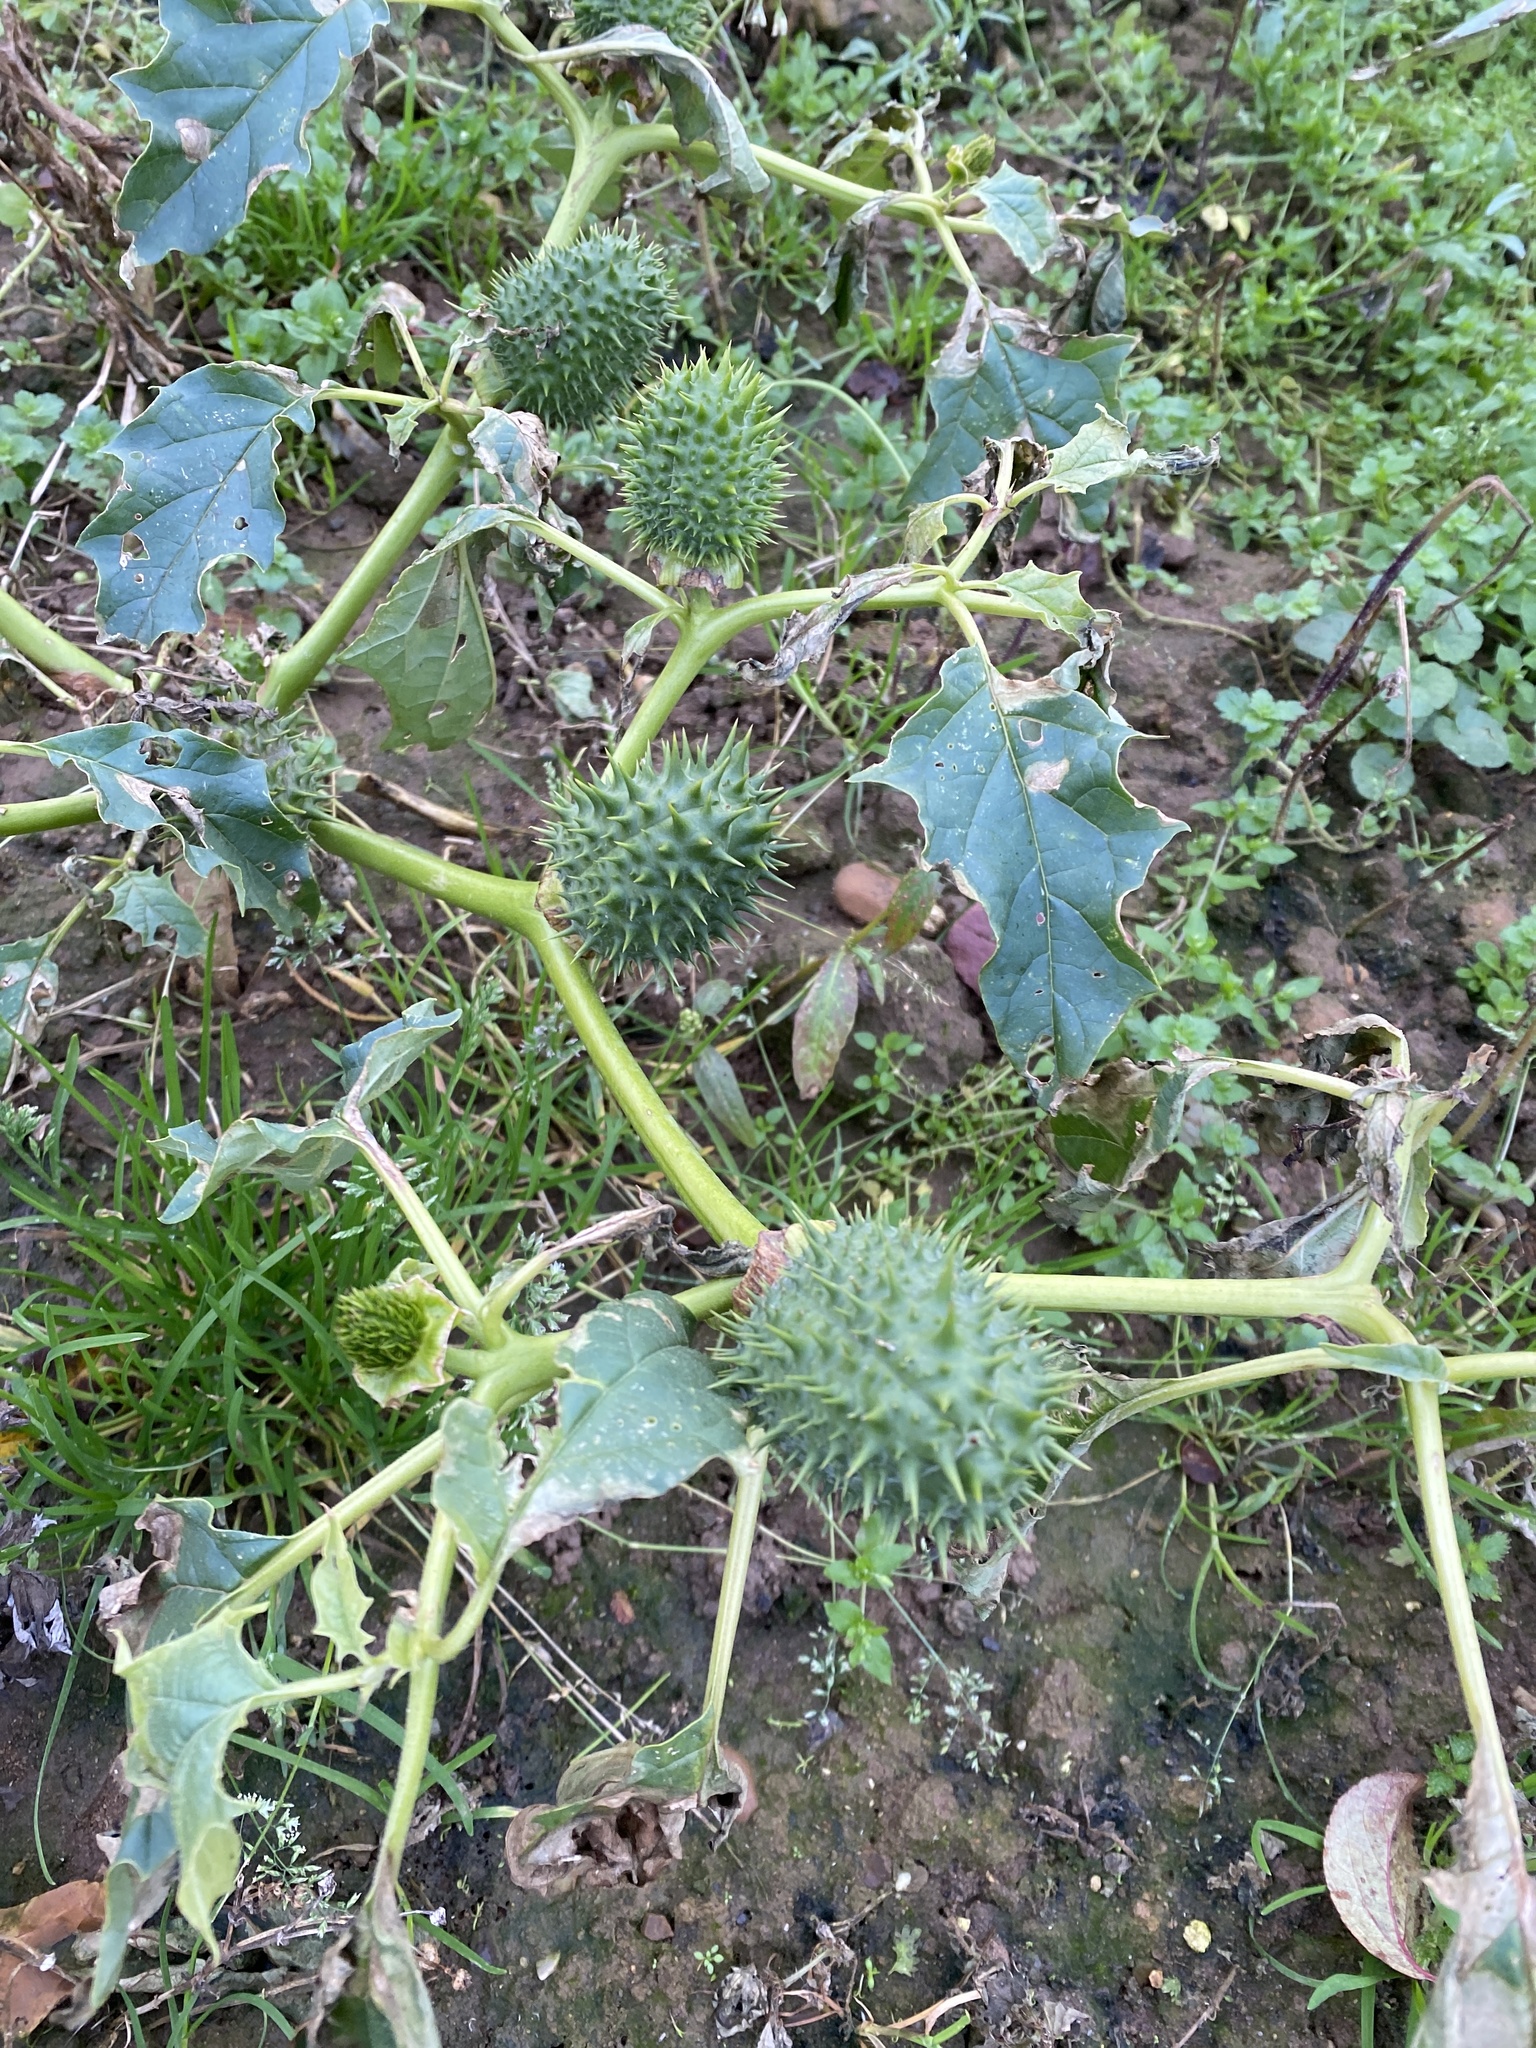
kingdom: Plantae
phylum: Tracheophyta
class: Magnoliopsida
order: Solanales
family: Solanaceae
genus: Datura
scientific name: Datura stramonium
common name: Thorn-apple
